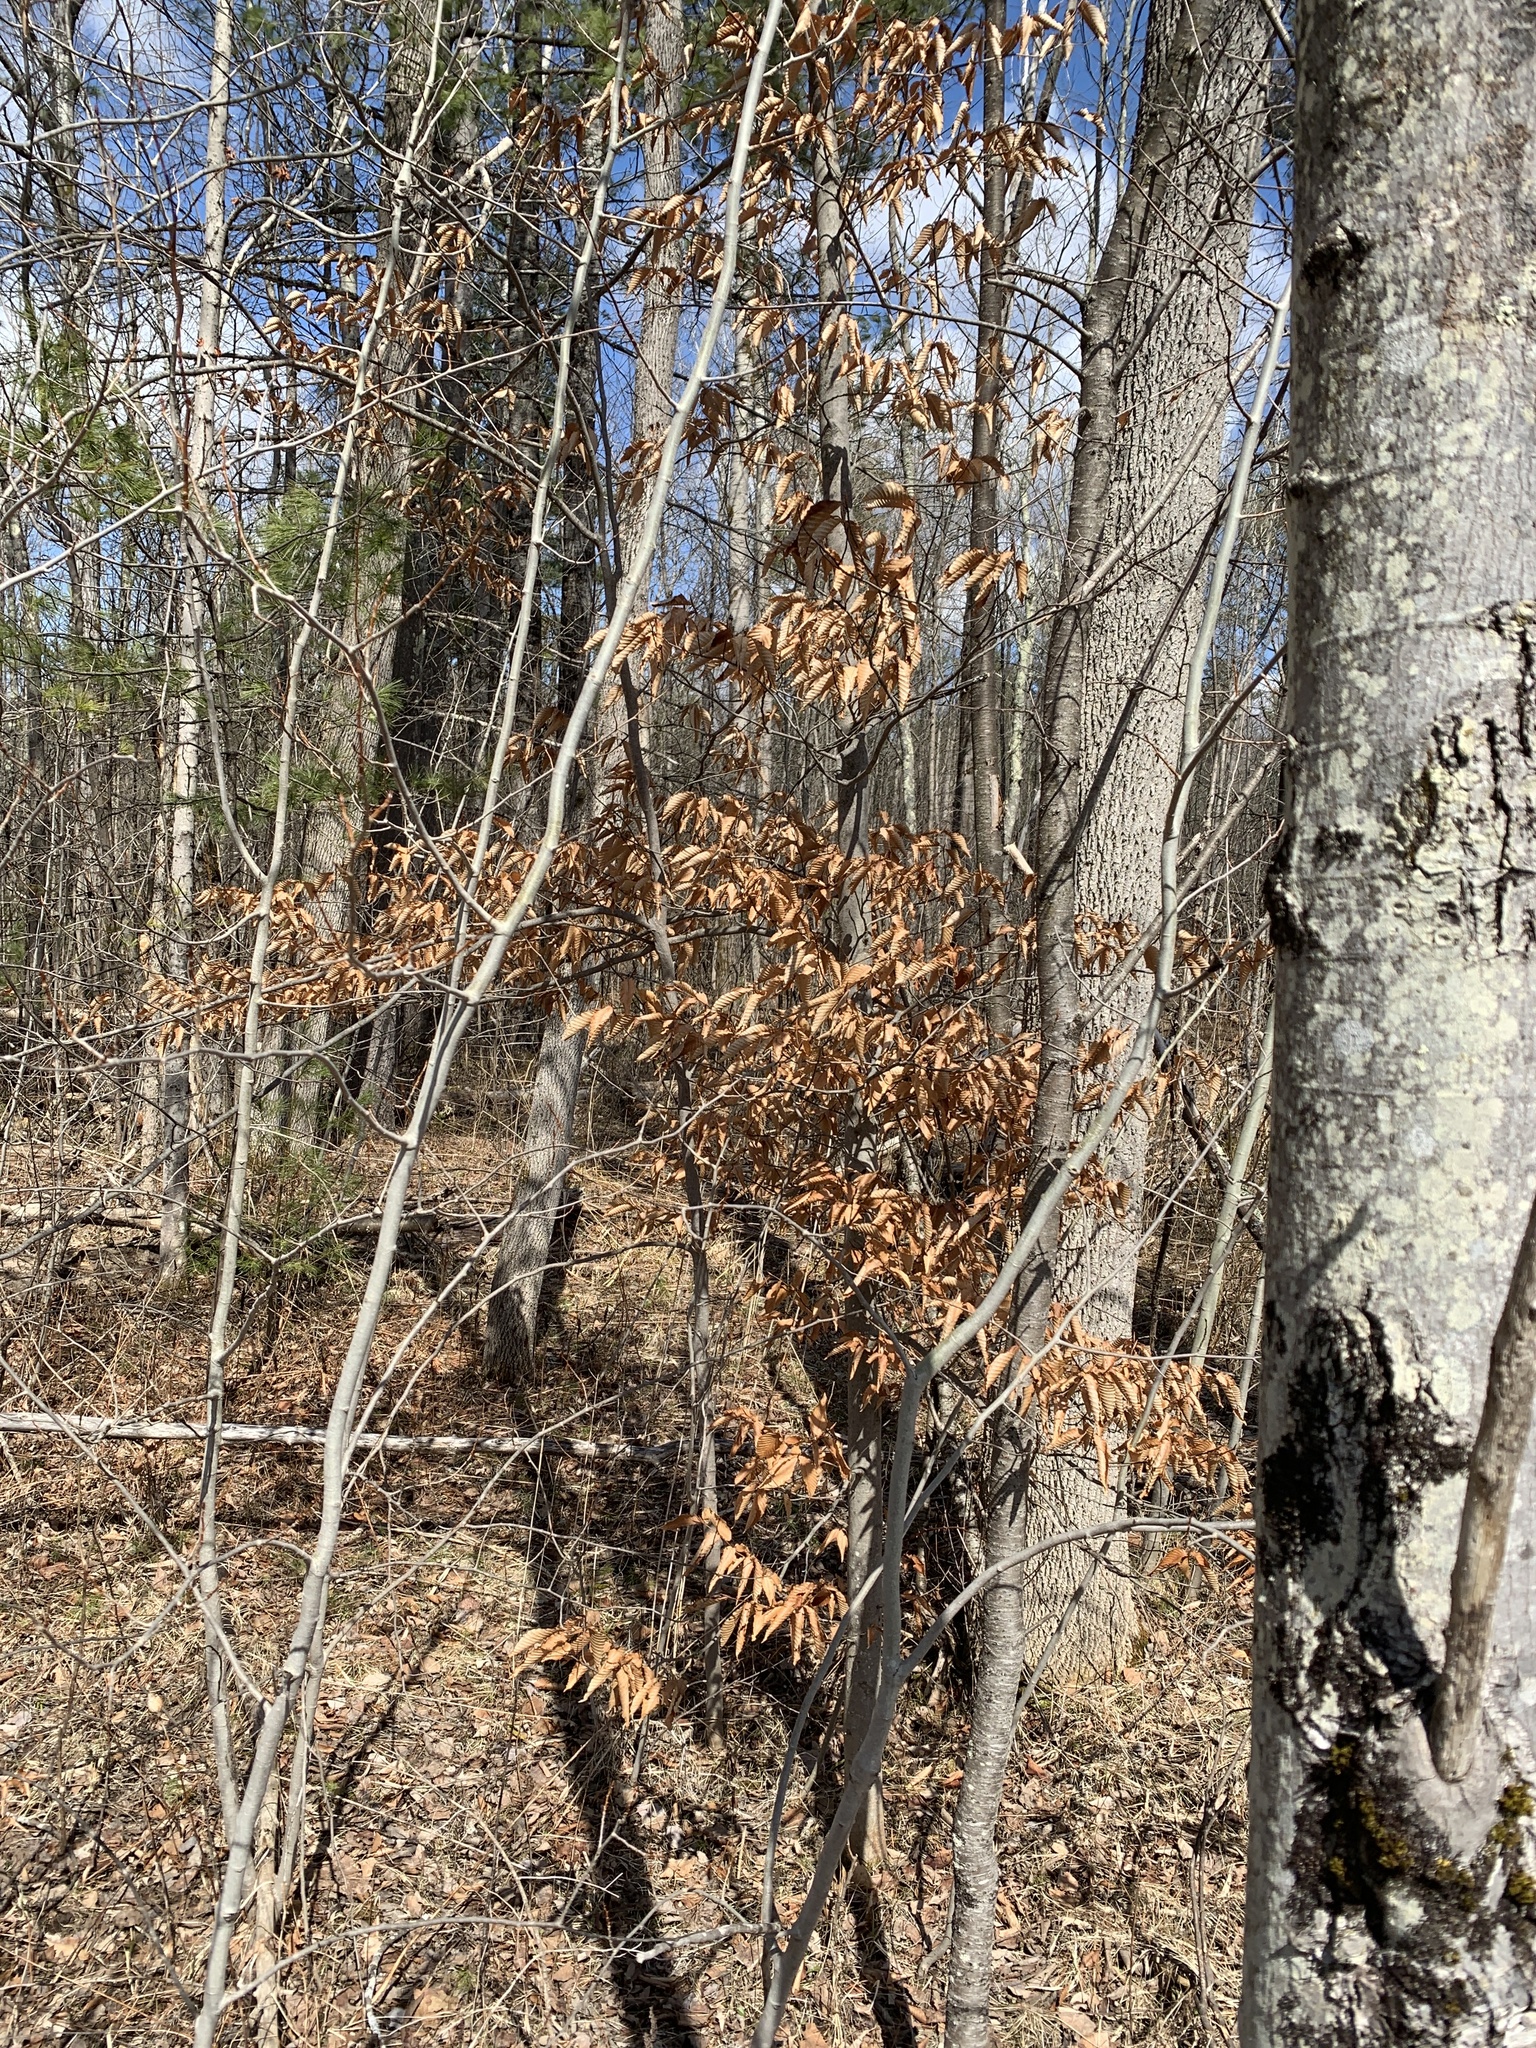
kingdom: Plantae
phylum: Tracheophyta
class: Magnoliopsida
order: Fagales
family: Fagaceae
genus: Fagus
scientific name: Fagus grandifolia
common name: American beech
